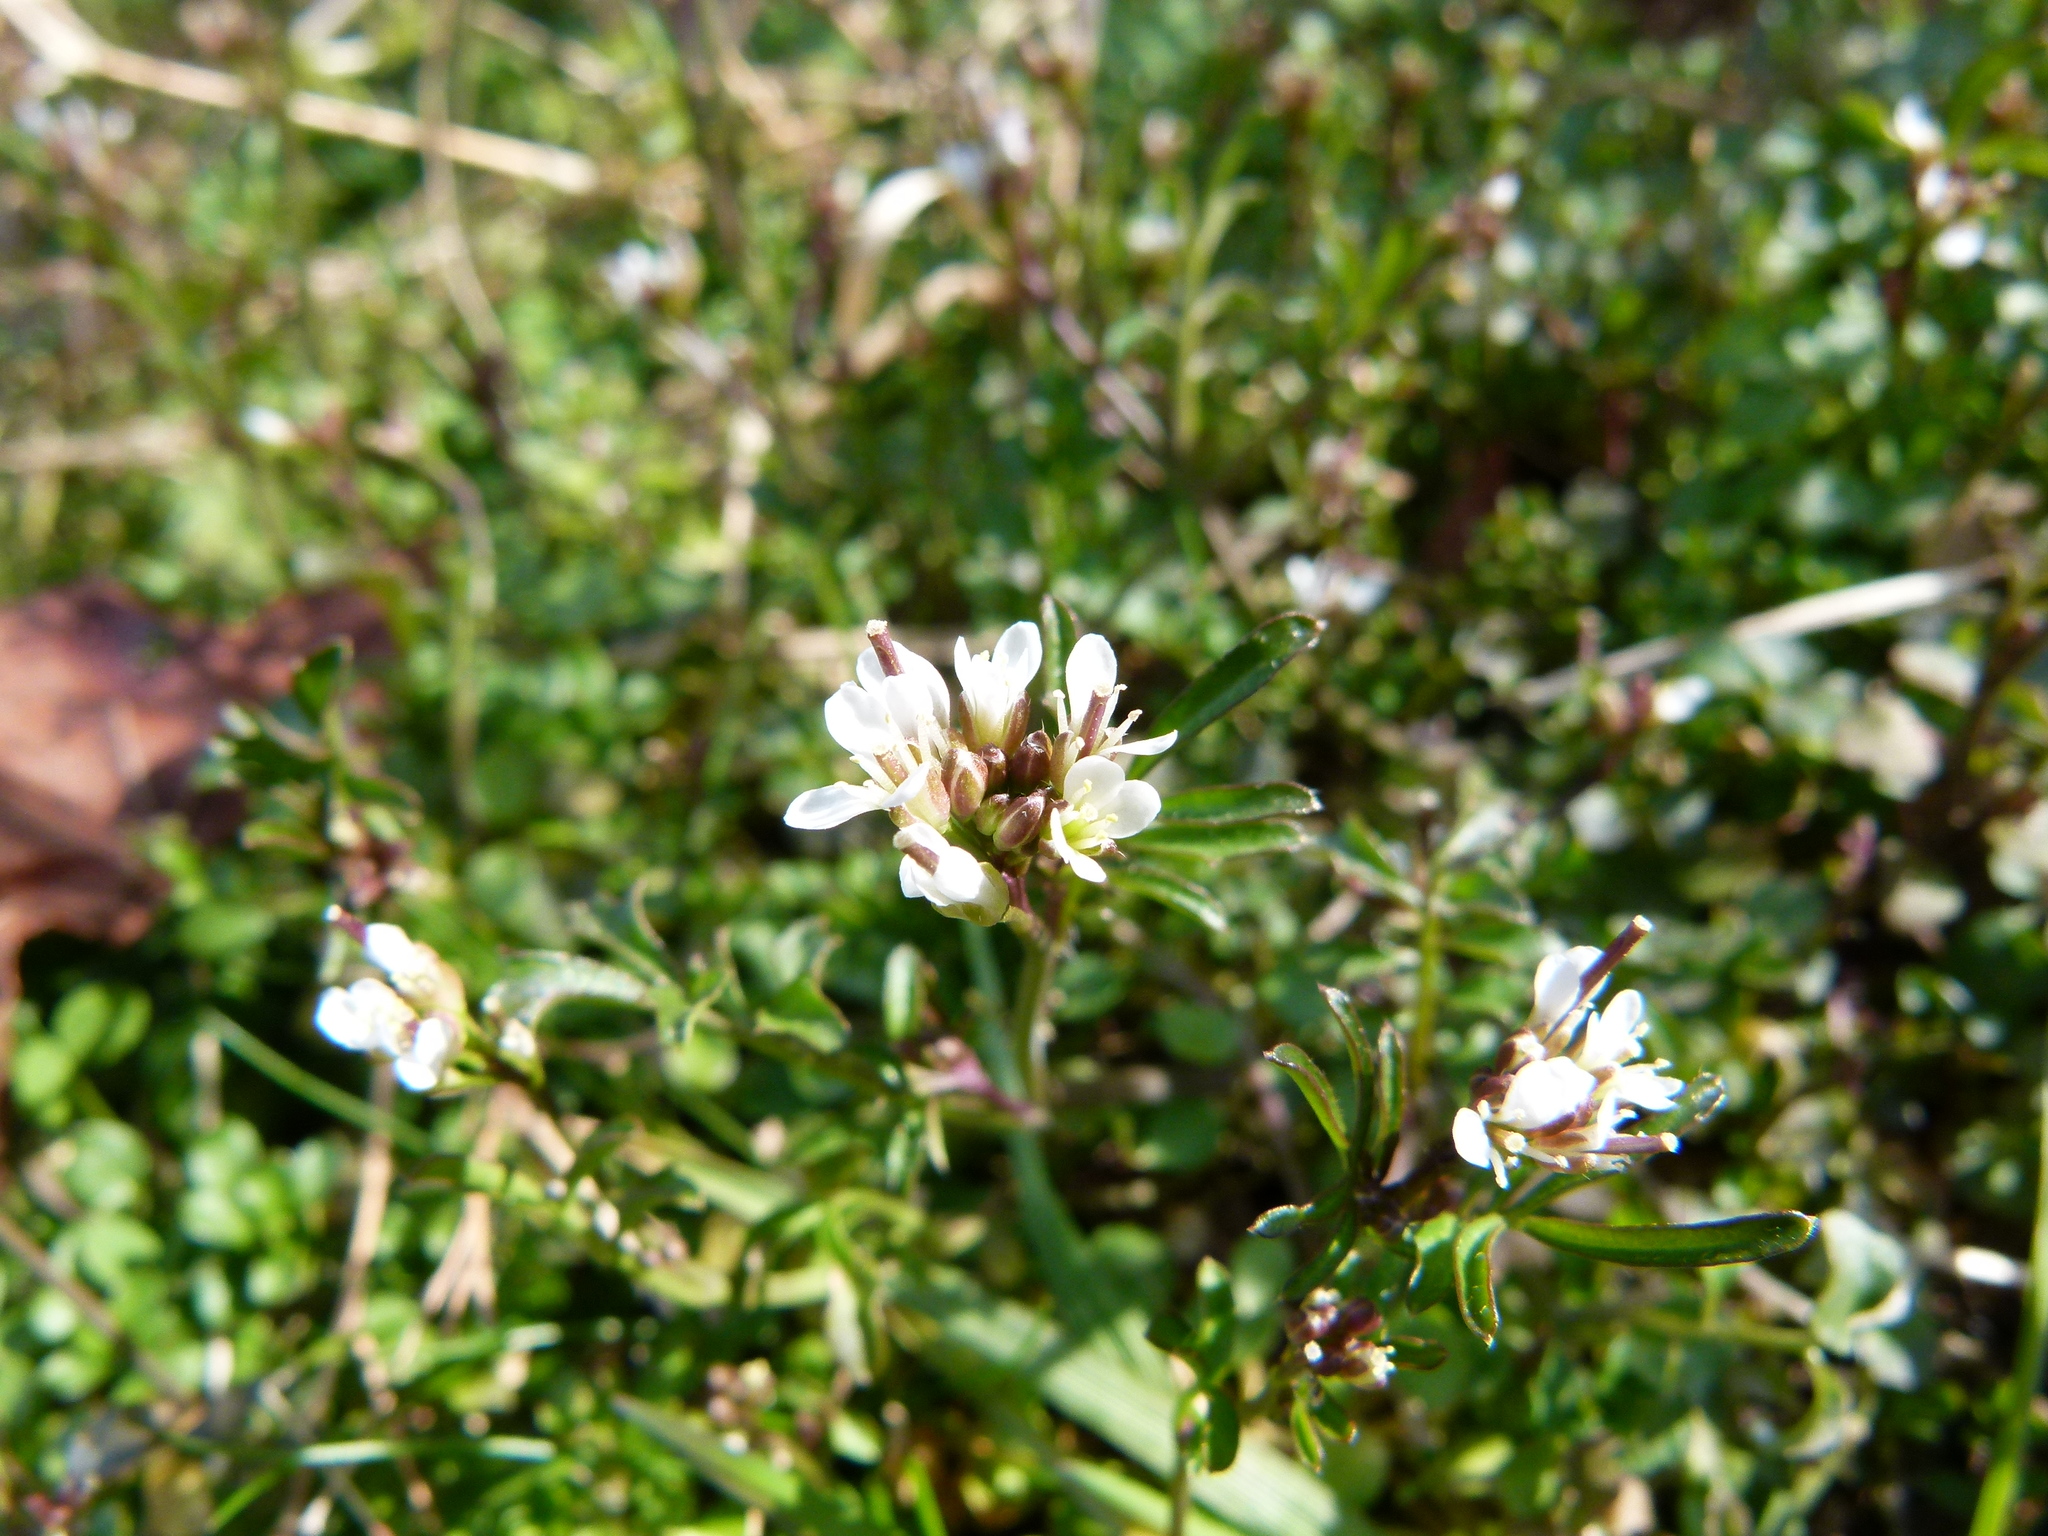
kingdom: Plantae
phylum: Tracheophyta
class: Magnoliopsida
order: Brassicales
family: Brassicaceae
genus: Cardamine
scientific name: Cardamine hirsuta
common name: Hairy bittercress
